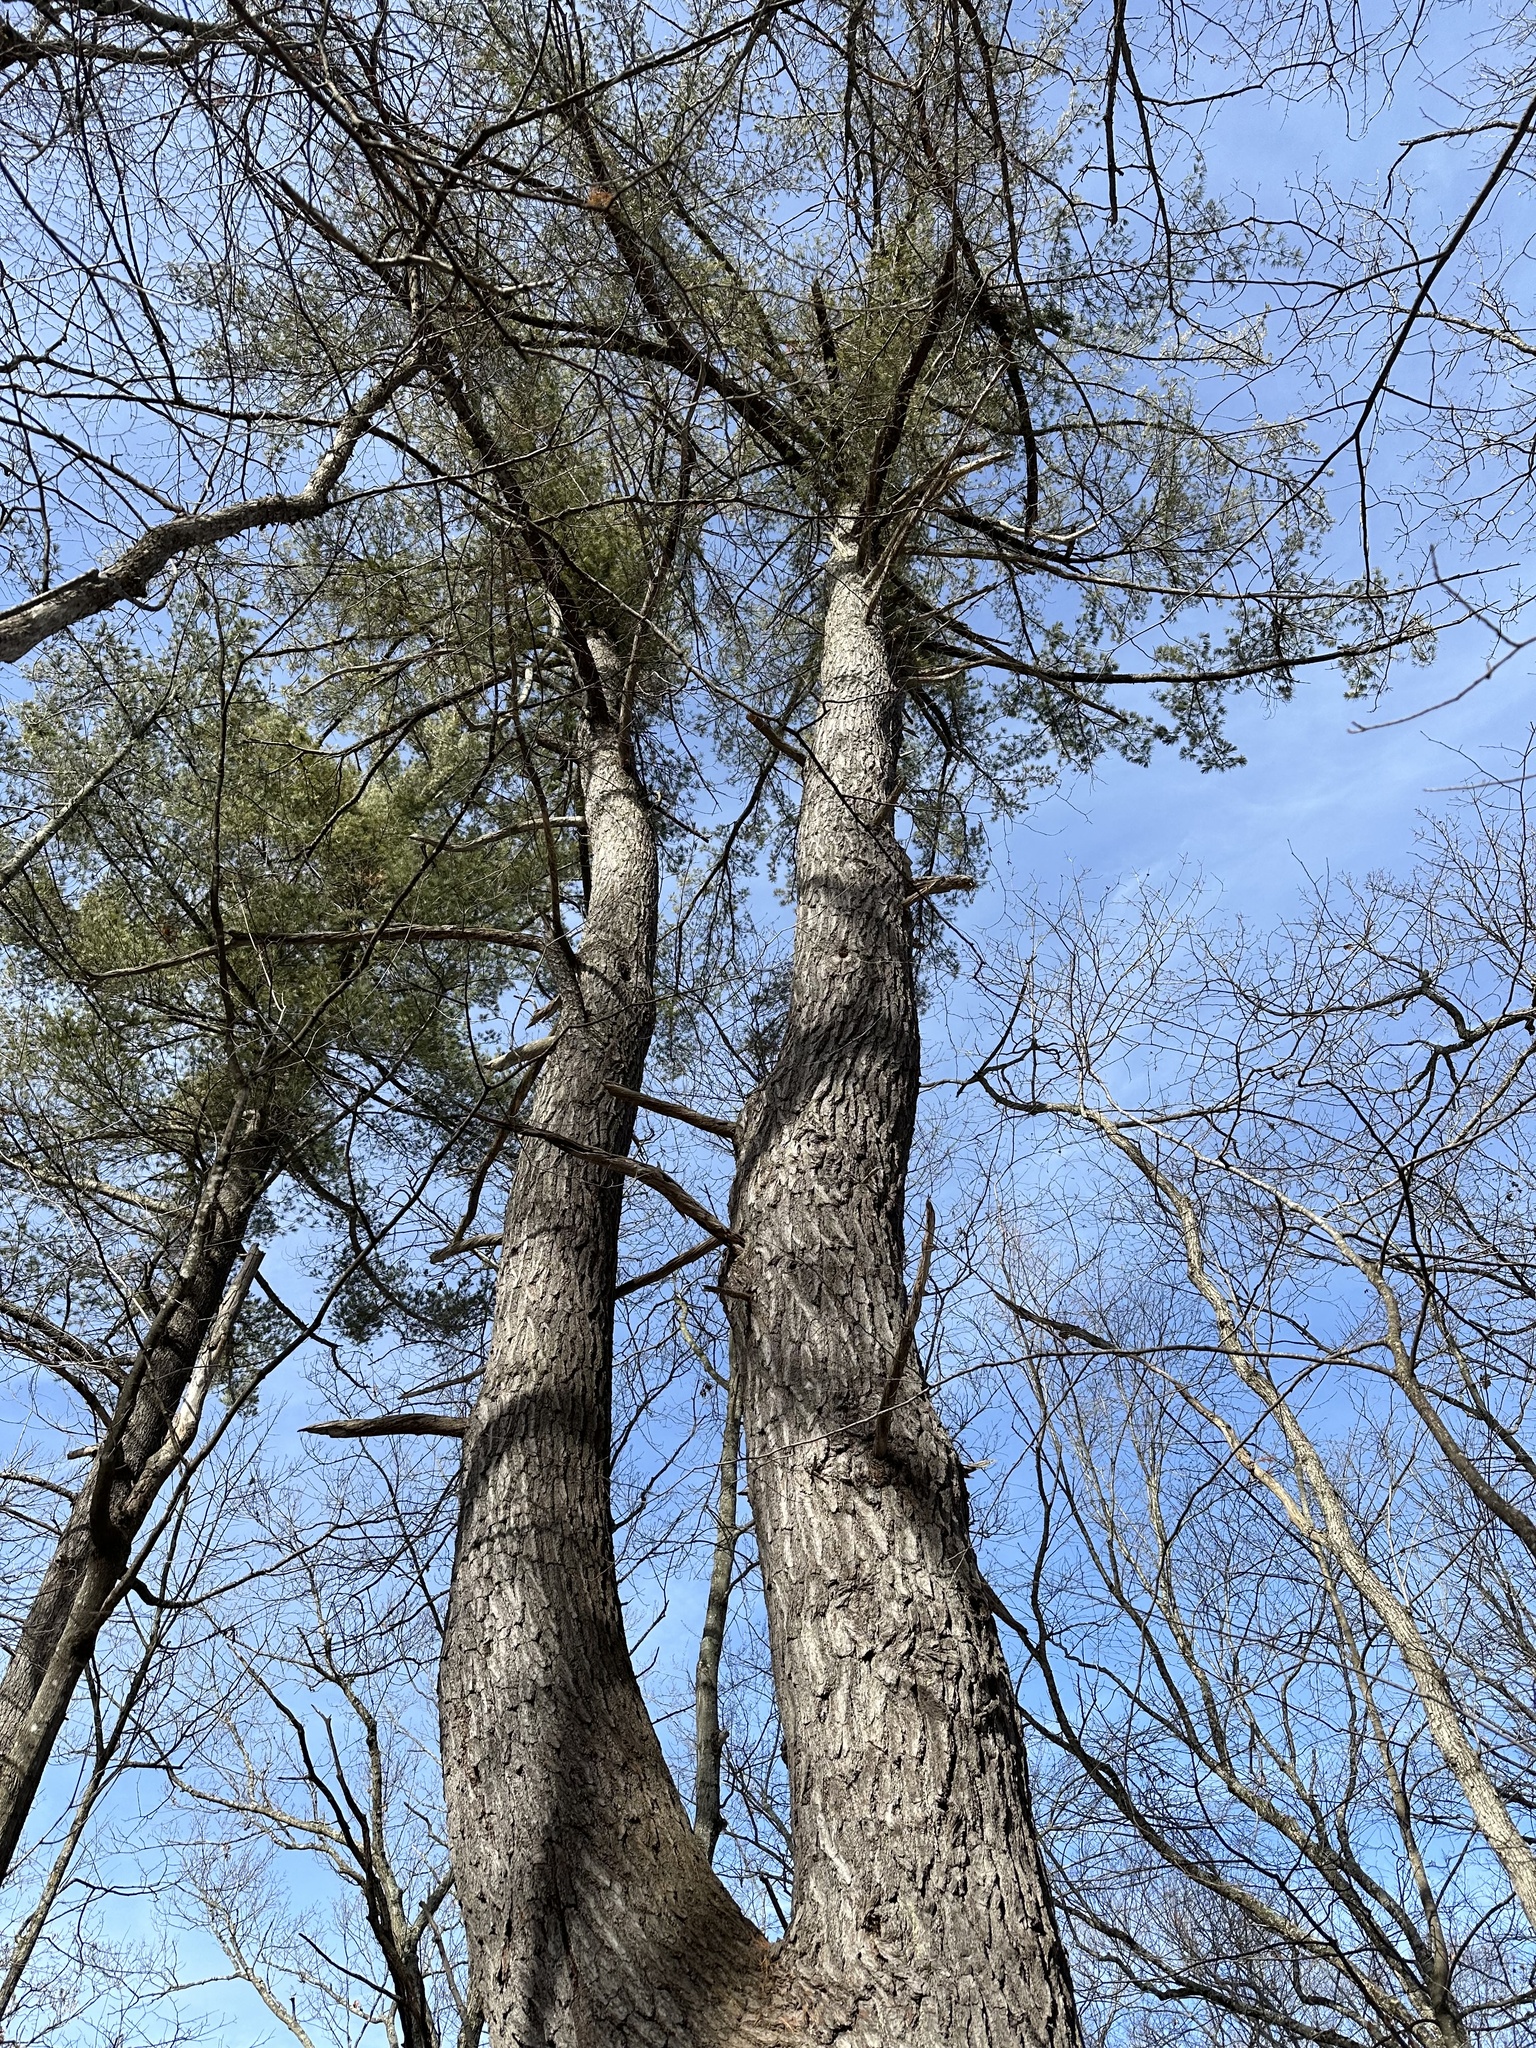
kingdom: Plantae
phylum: Tracheophyta
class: Pinopsida
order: Pinales
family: Pinaceae
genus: Pinus
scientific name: Pinus strobus
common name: Weymouth pine
